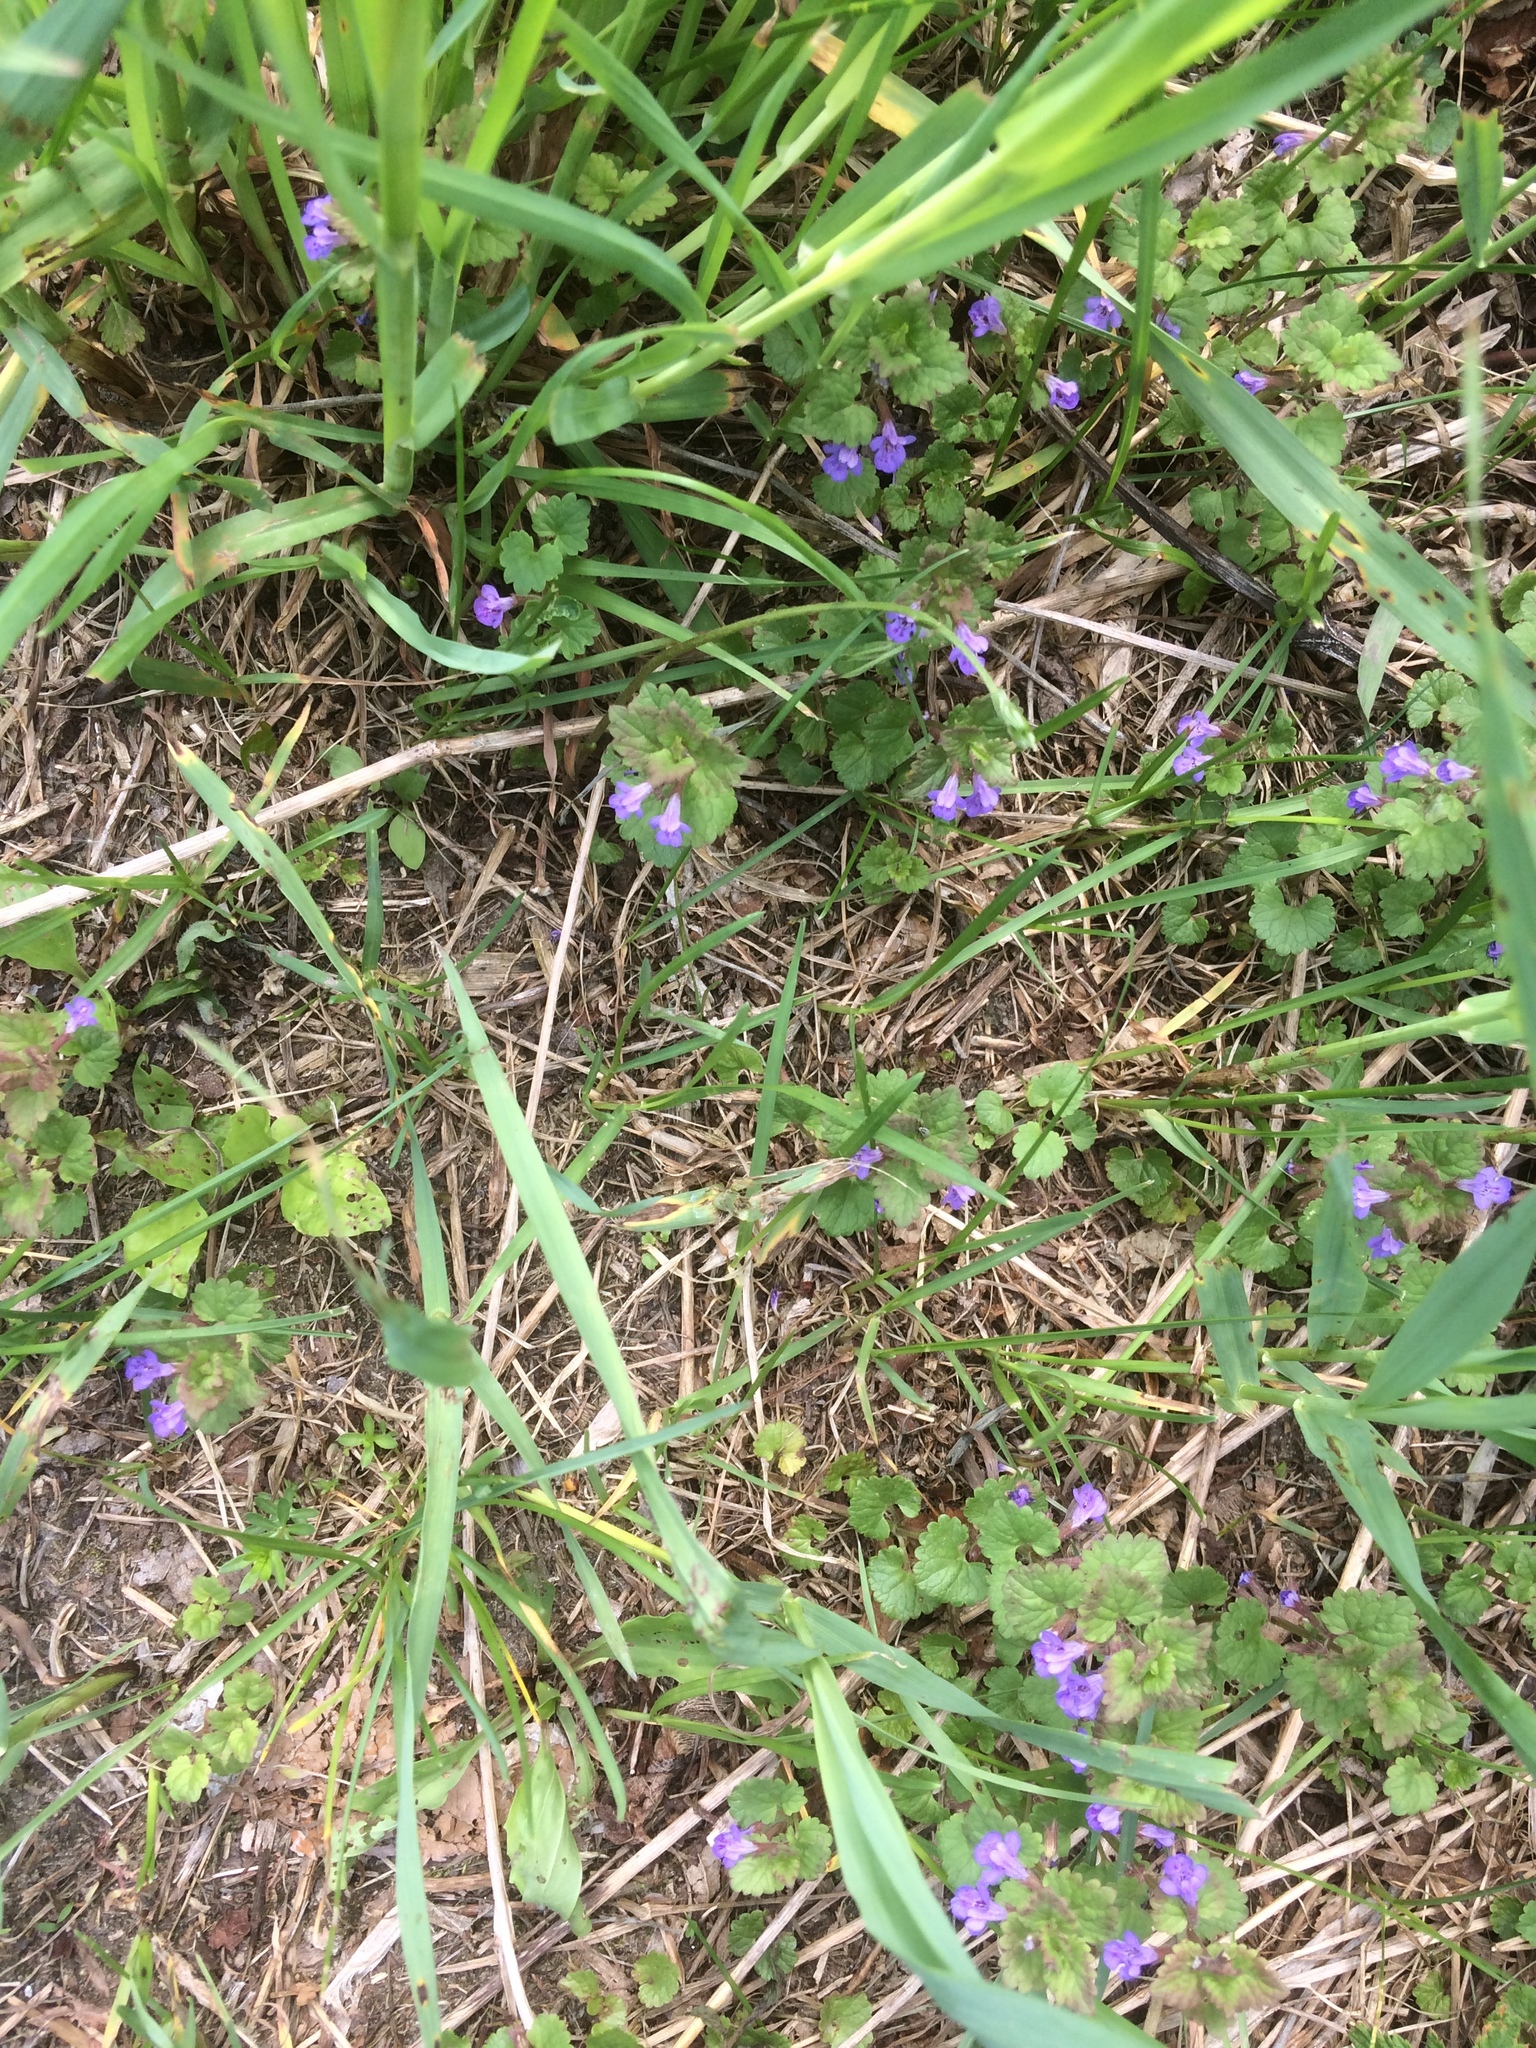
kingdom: Plantae
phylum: Tracheophyta
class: Magnoliopsida
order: Lamiales
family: Lamiaceae
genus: Glechoma
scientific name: Glechoma hederacea
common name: Ground ivy
